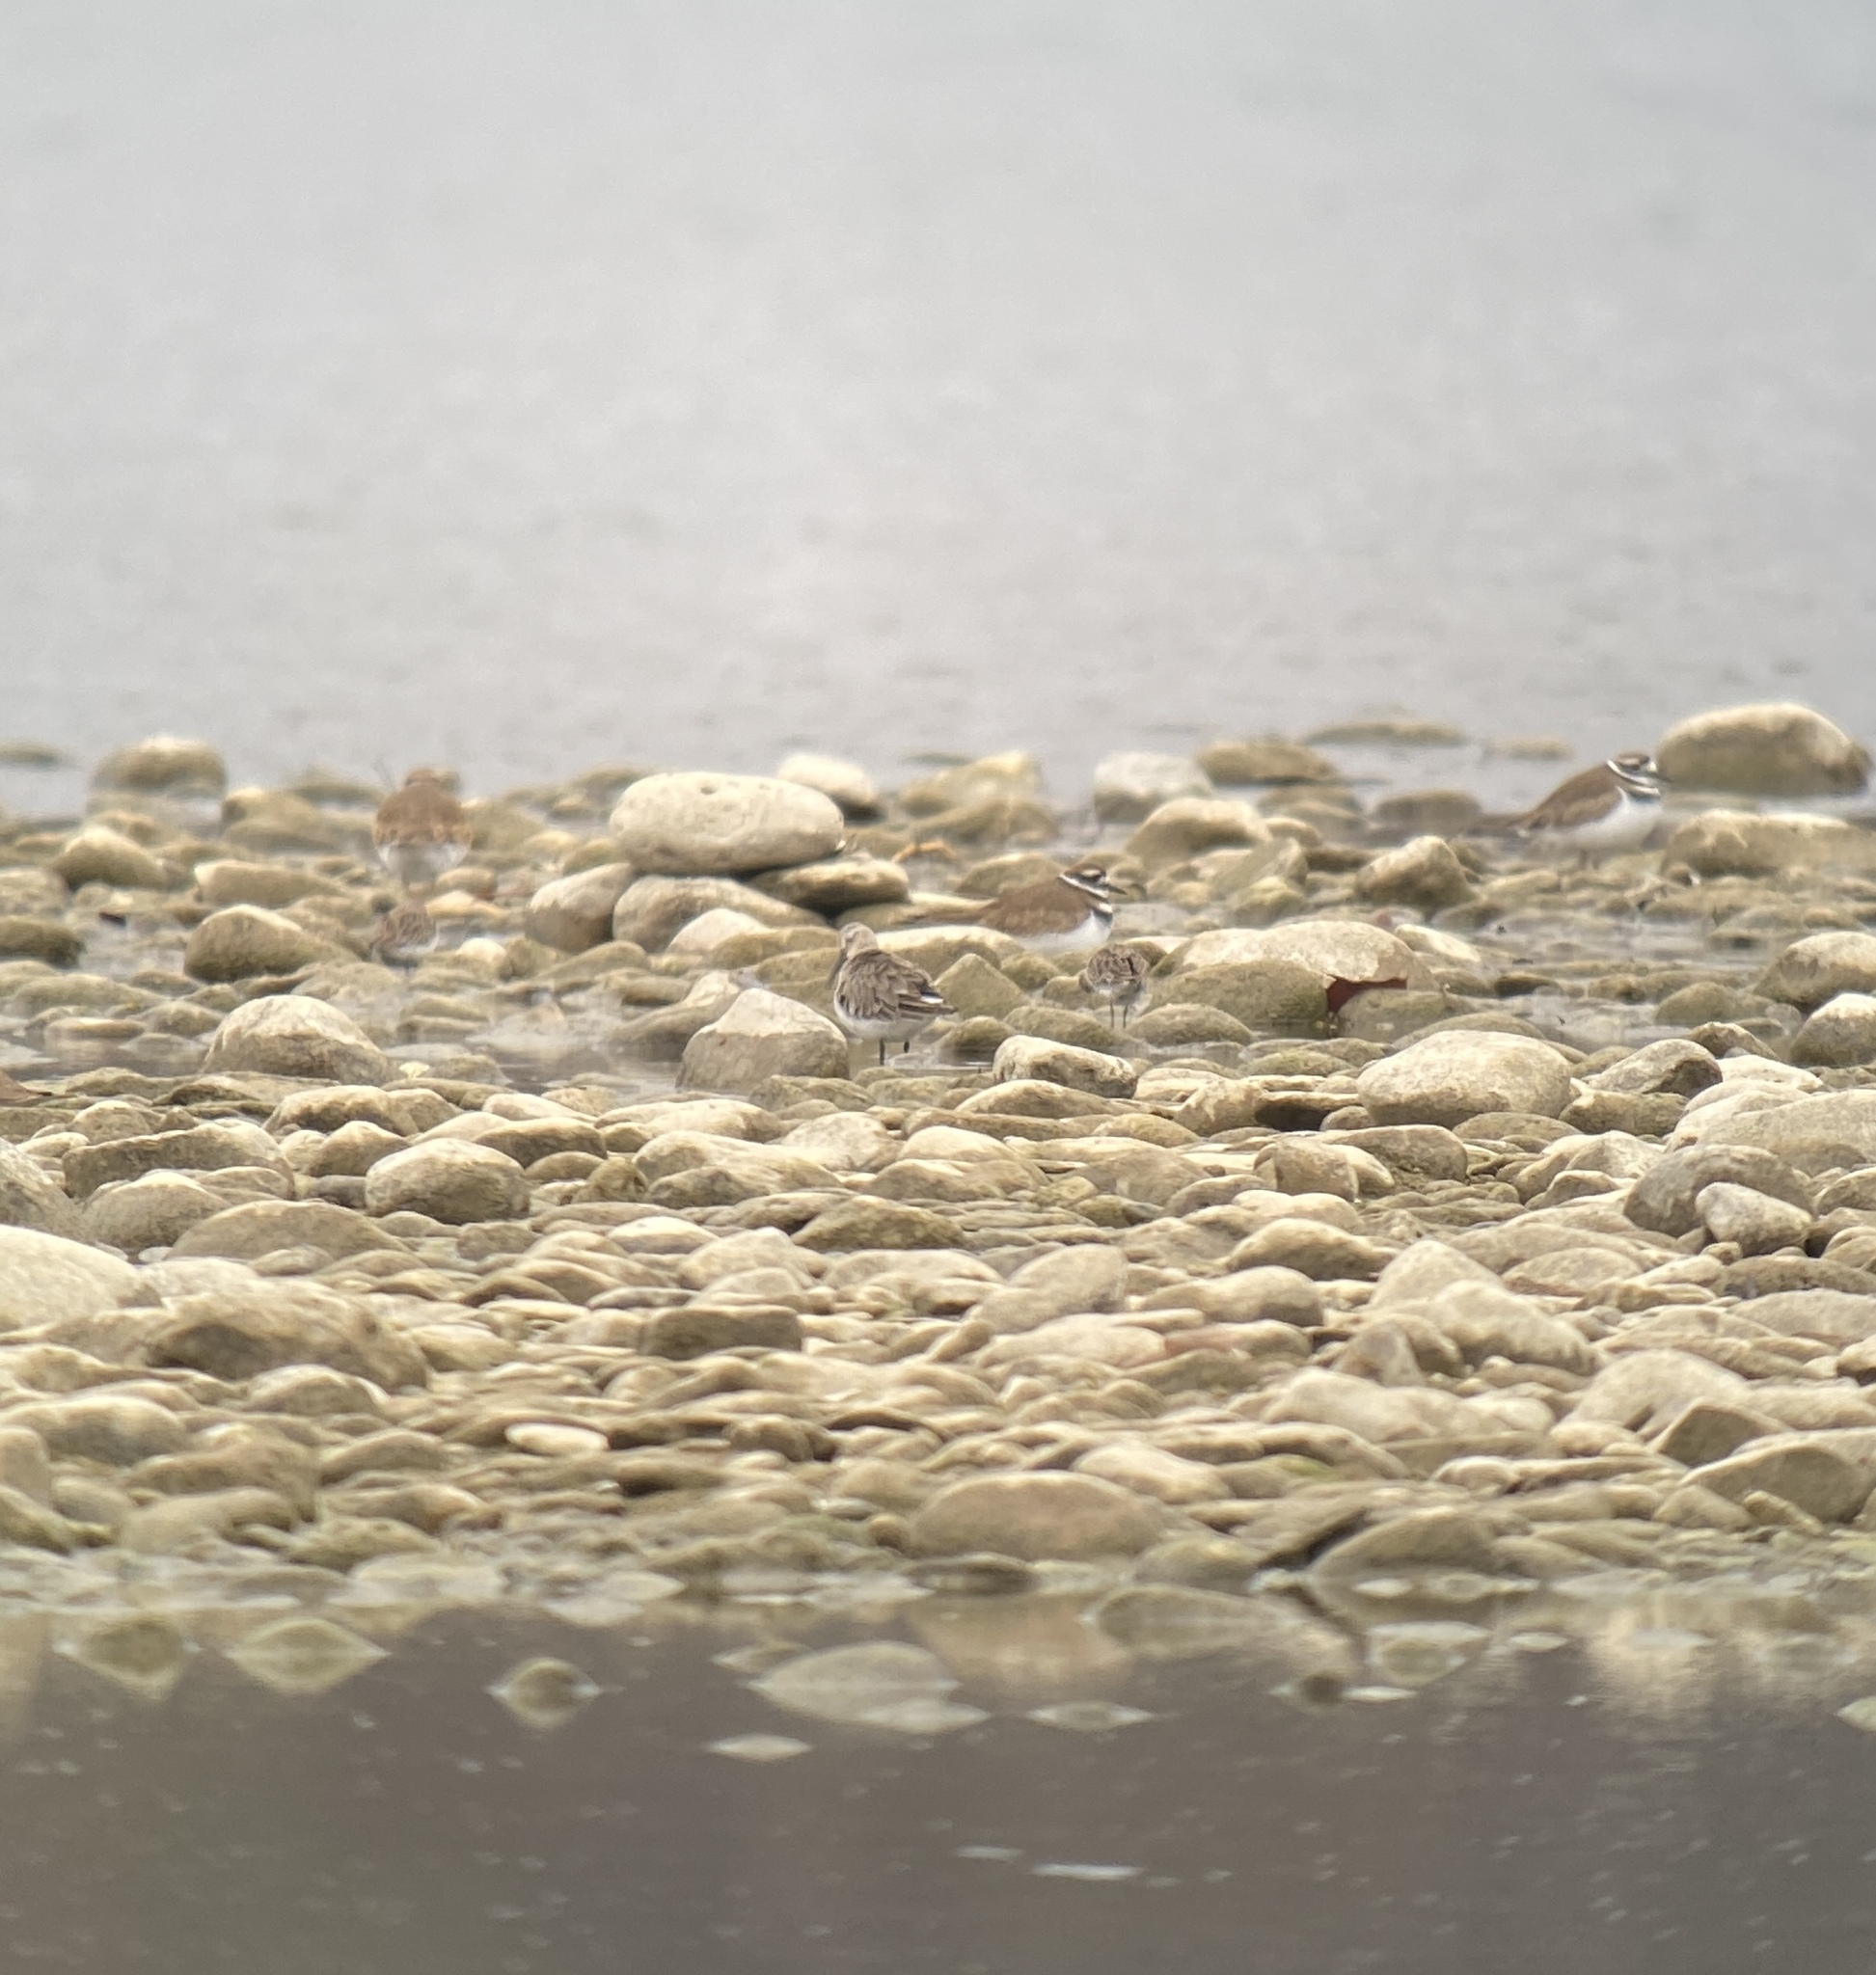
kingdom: Animalia
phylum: Chordata
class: Aves
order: Charadriiformes
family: Scolopacidae
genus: Calidris
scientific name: Calidris alpina
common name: Dunlin
